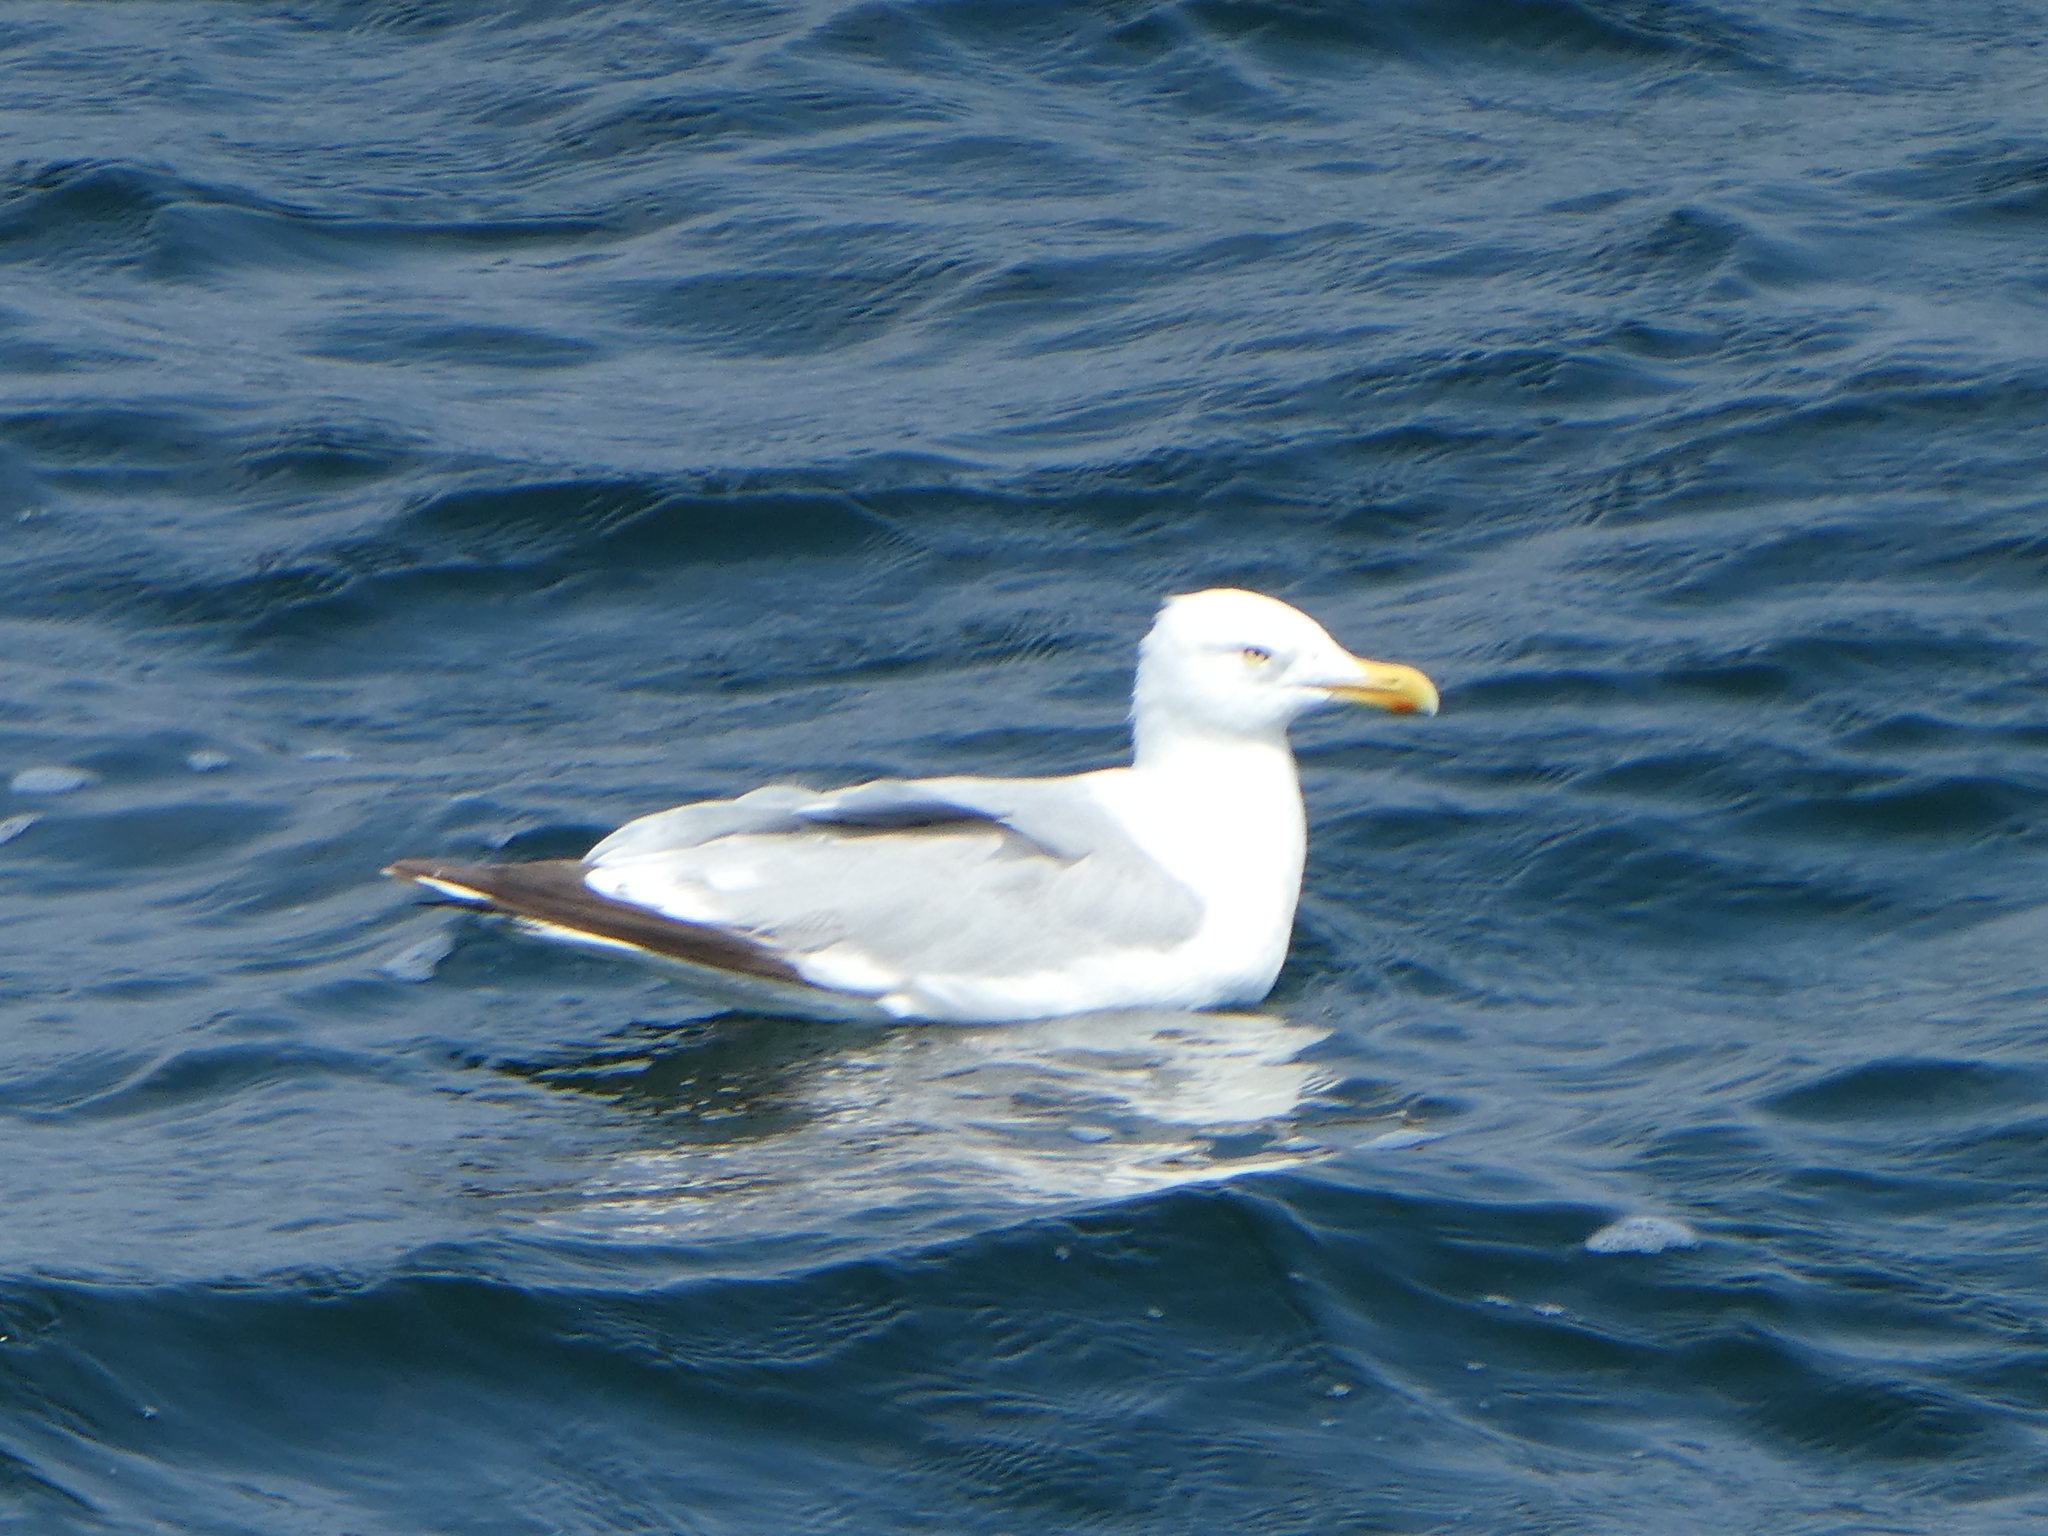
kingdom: Animalia
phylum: Chordata
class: Aves
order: Charadriiformes
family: Laridae
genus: Larus
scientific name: Larus argentatus
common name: Herring gull
